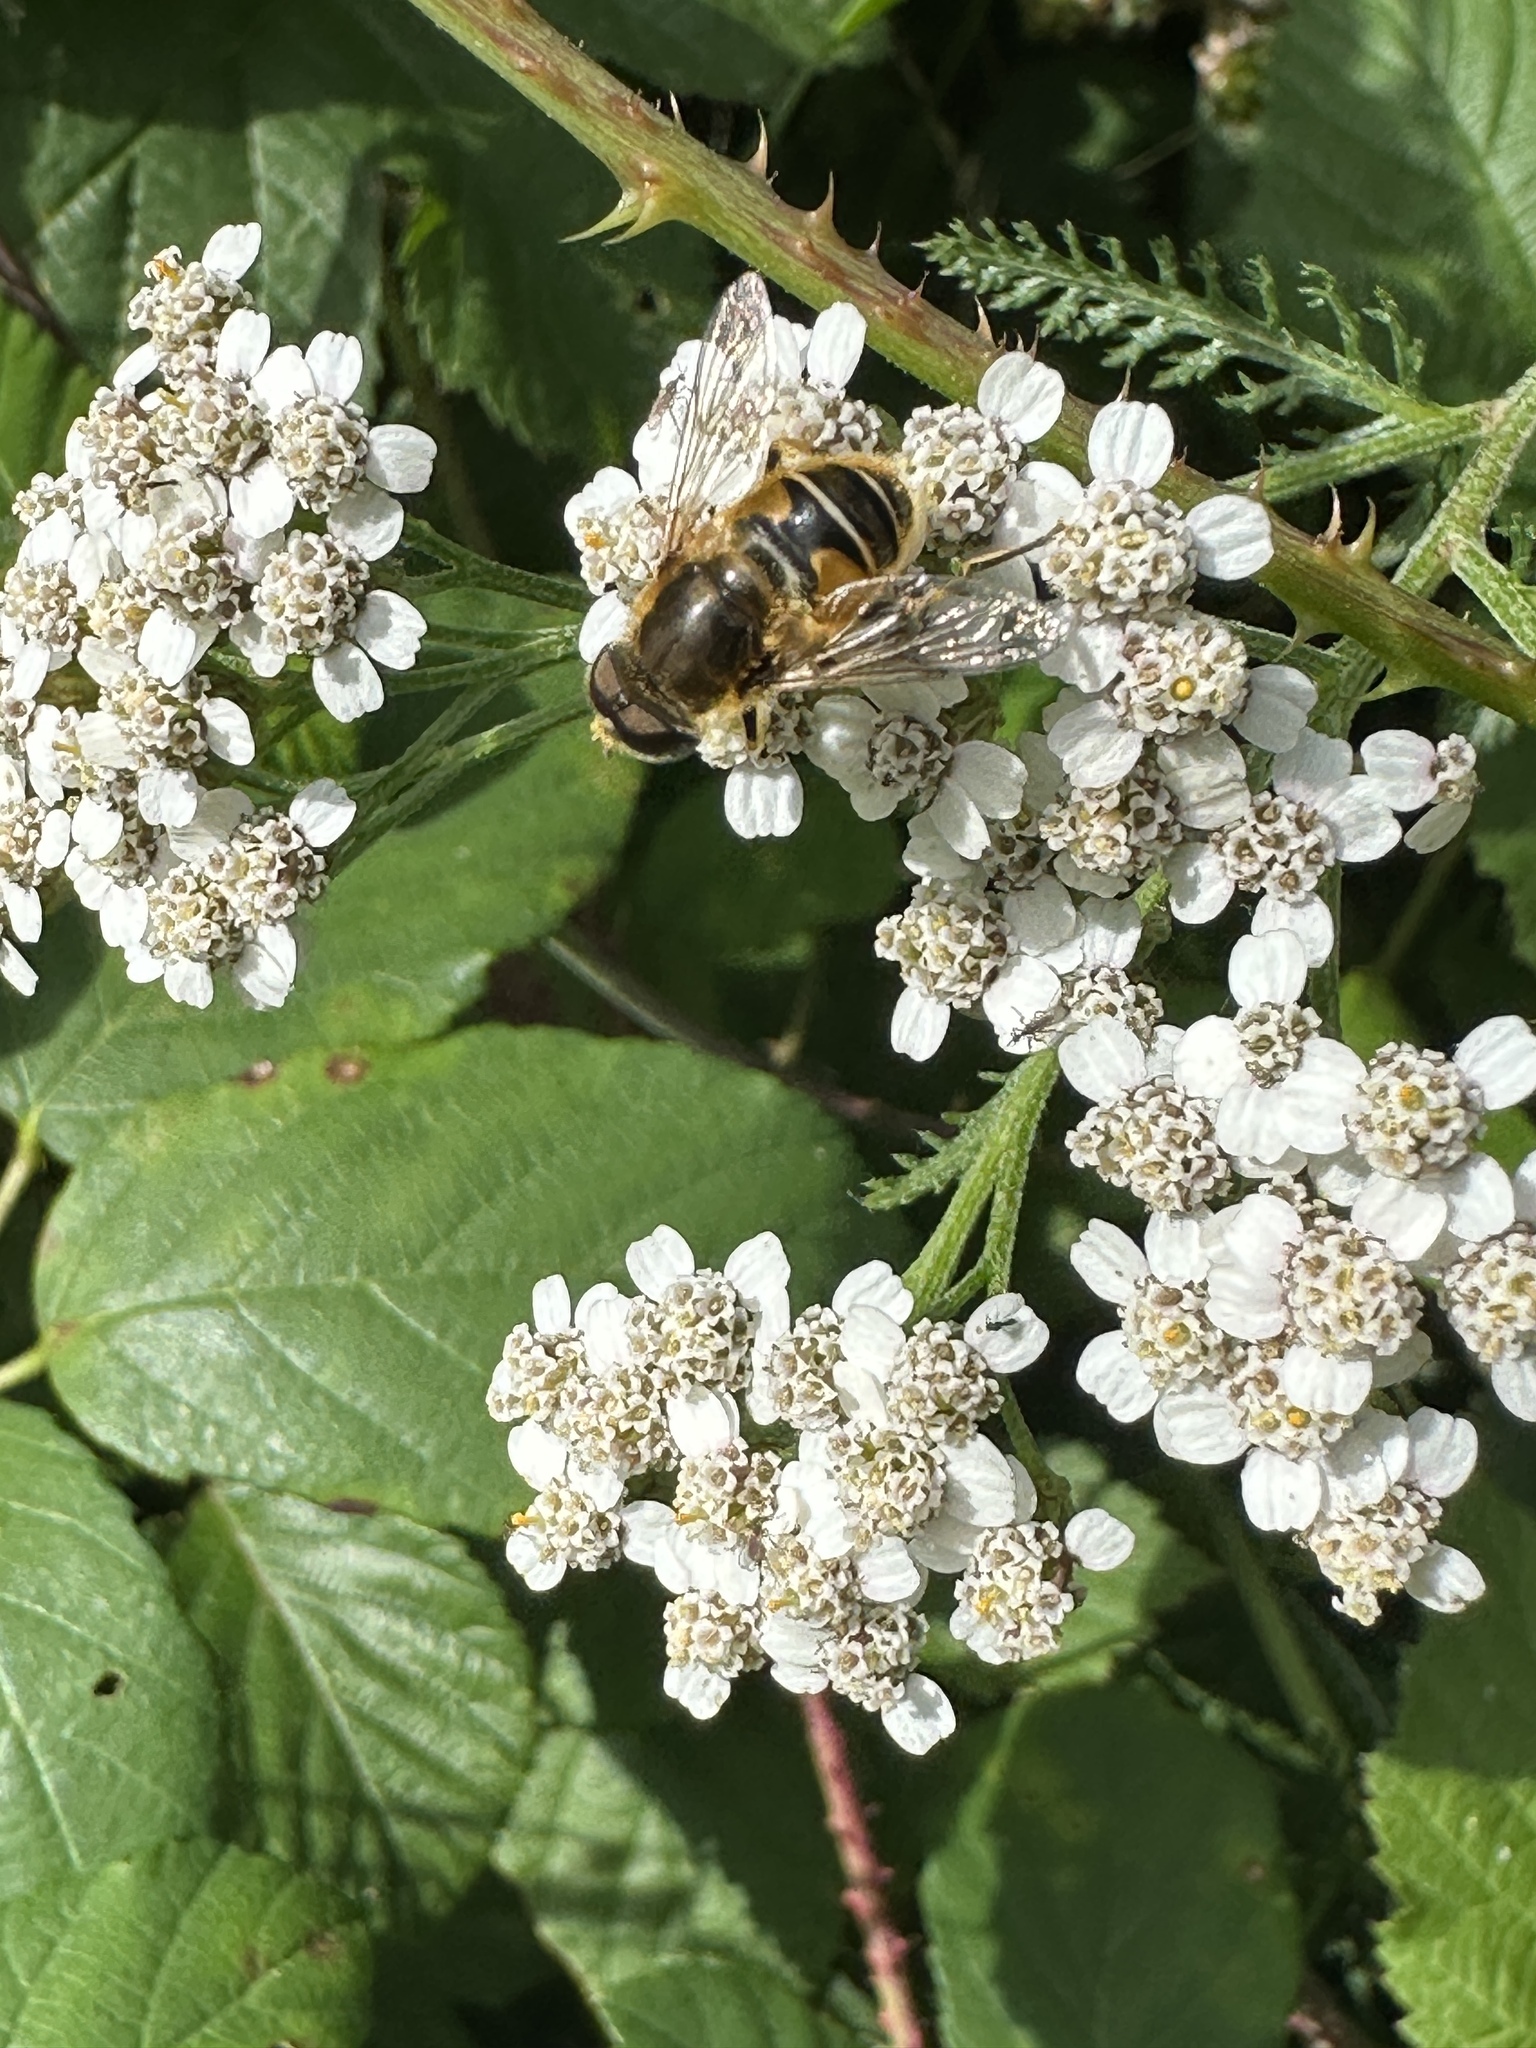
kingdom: Animalia
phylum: Arthropoda
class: Insecta
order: Diptera
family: Syrphidae
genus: Eristalis
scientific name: Eristalis nemorum
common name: Orange-spined drone fly
